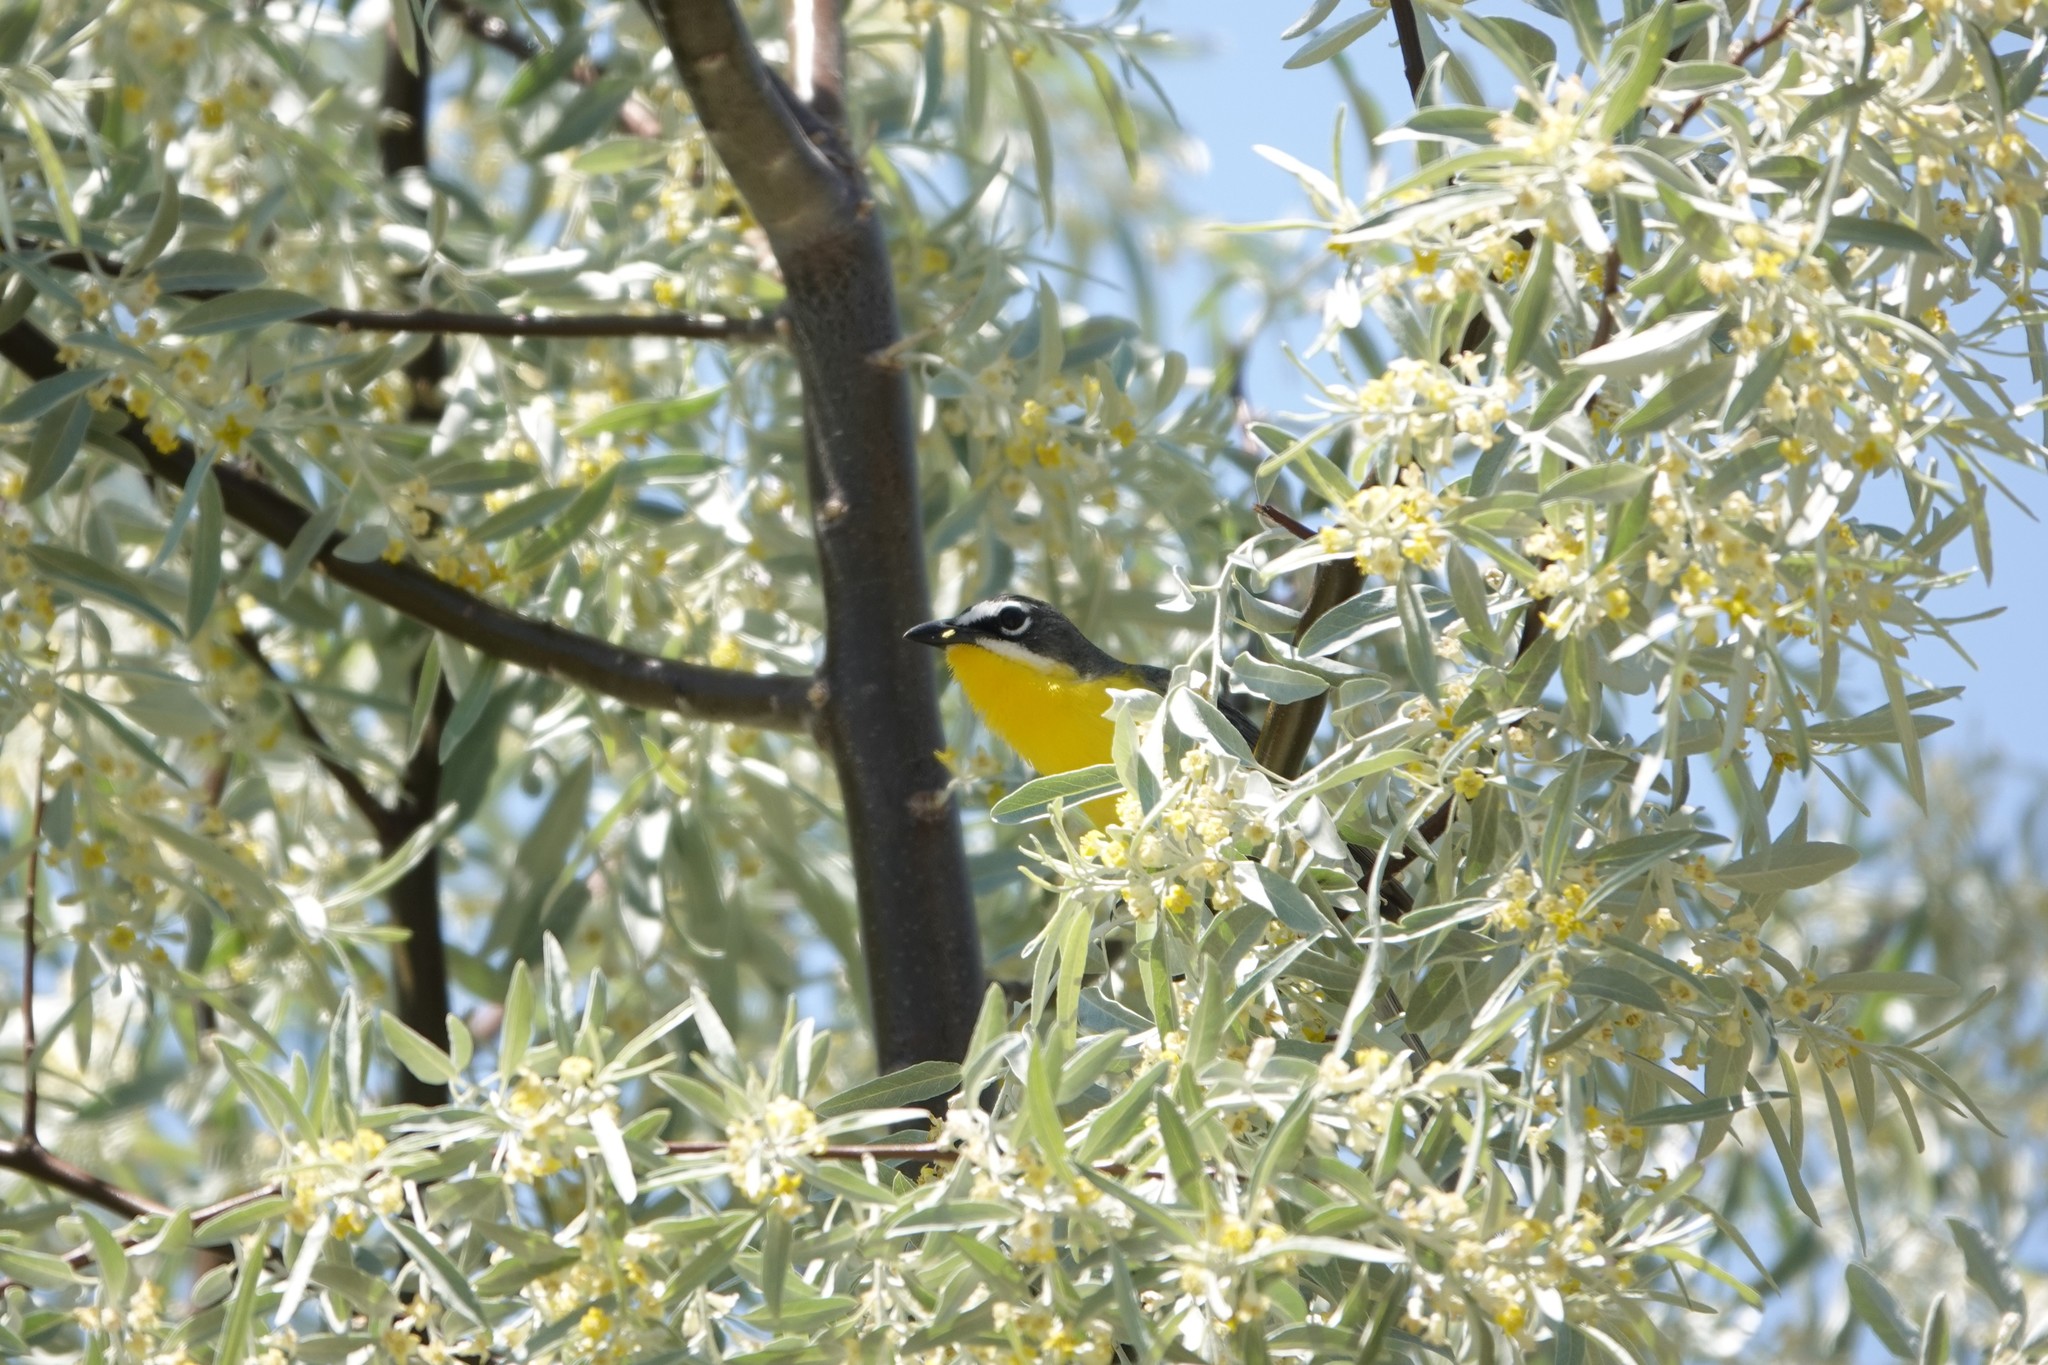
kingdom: Animalia
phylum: Chordata
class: Aves
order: Passeriformes
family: Parulidae
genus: Icteria
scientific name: Icteria virens
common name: Yellow-breasted chat
